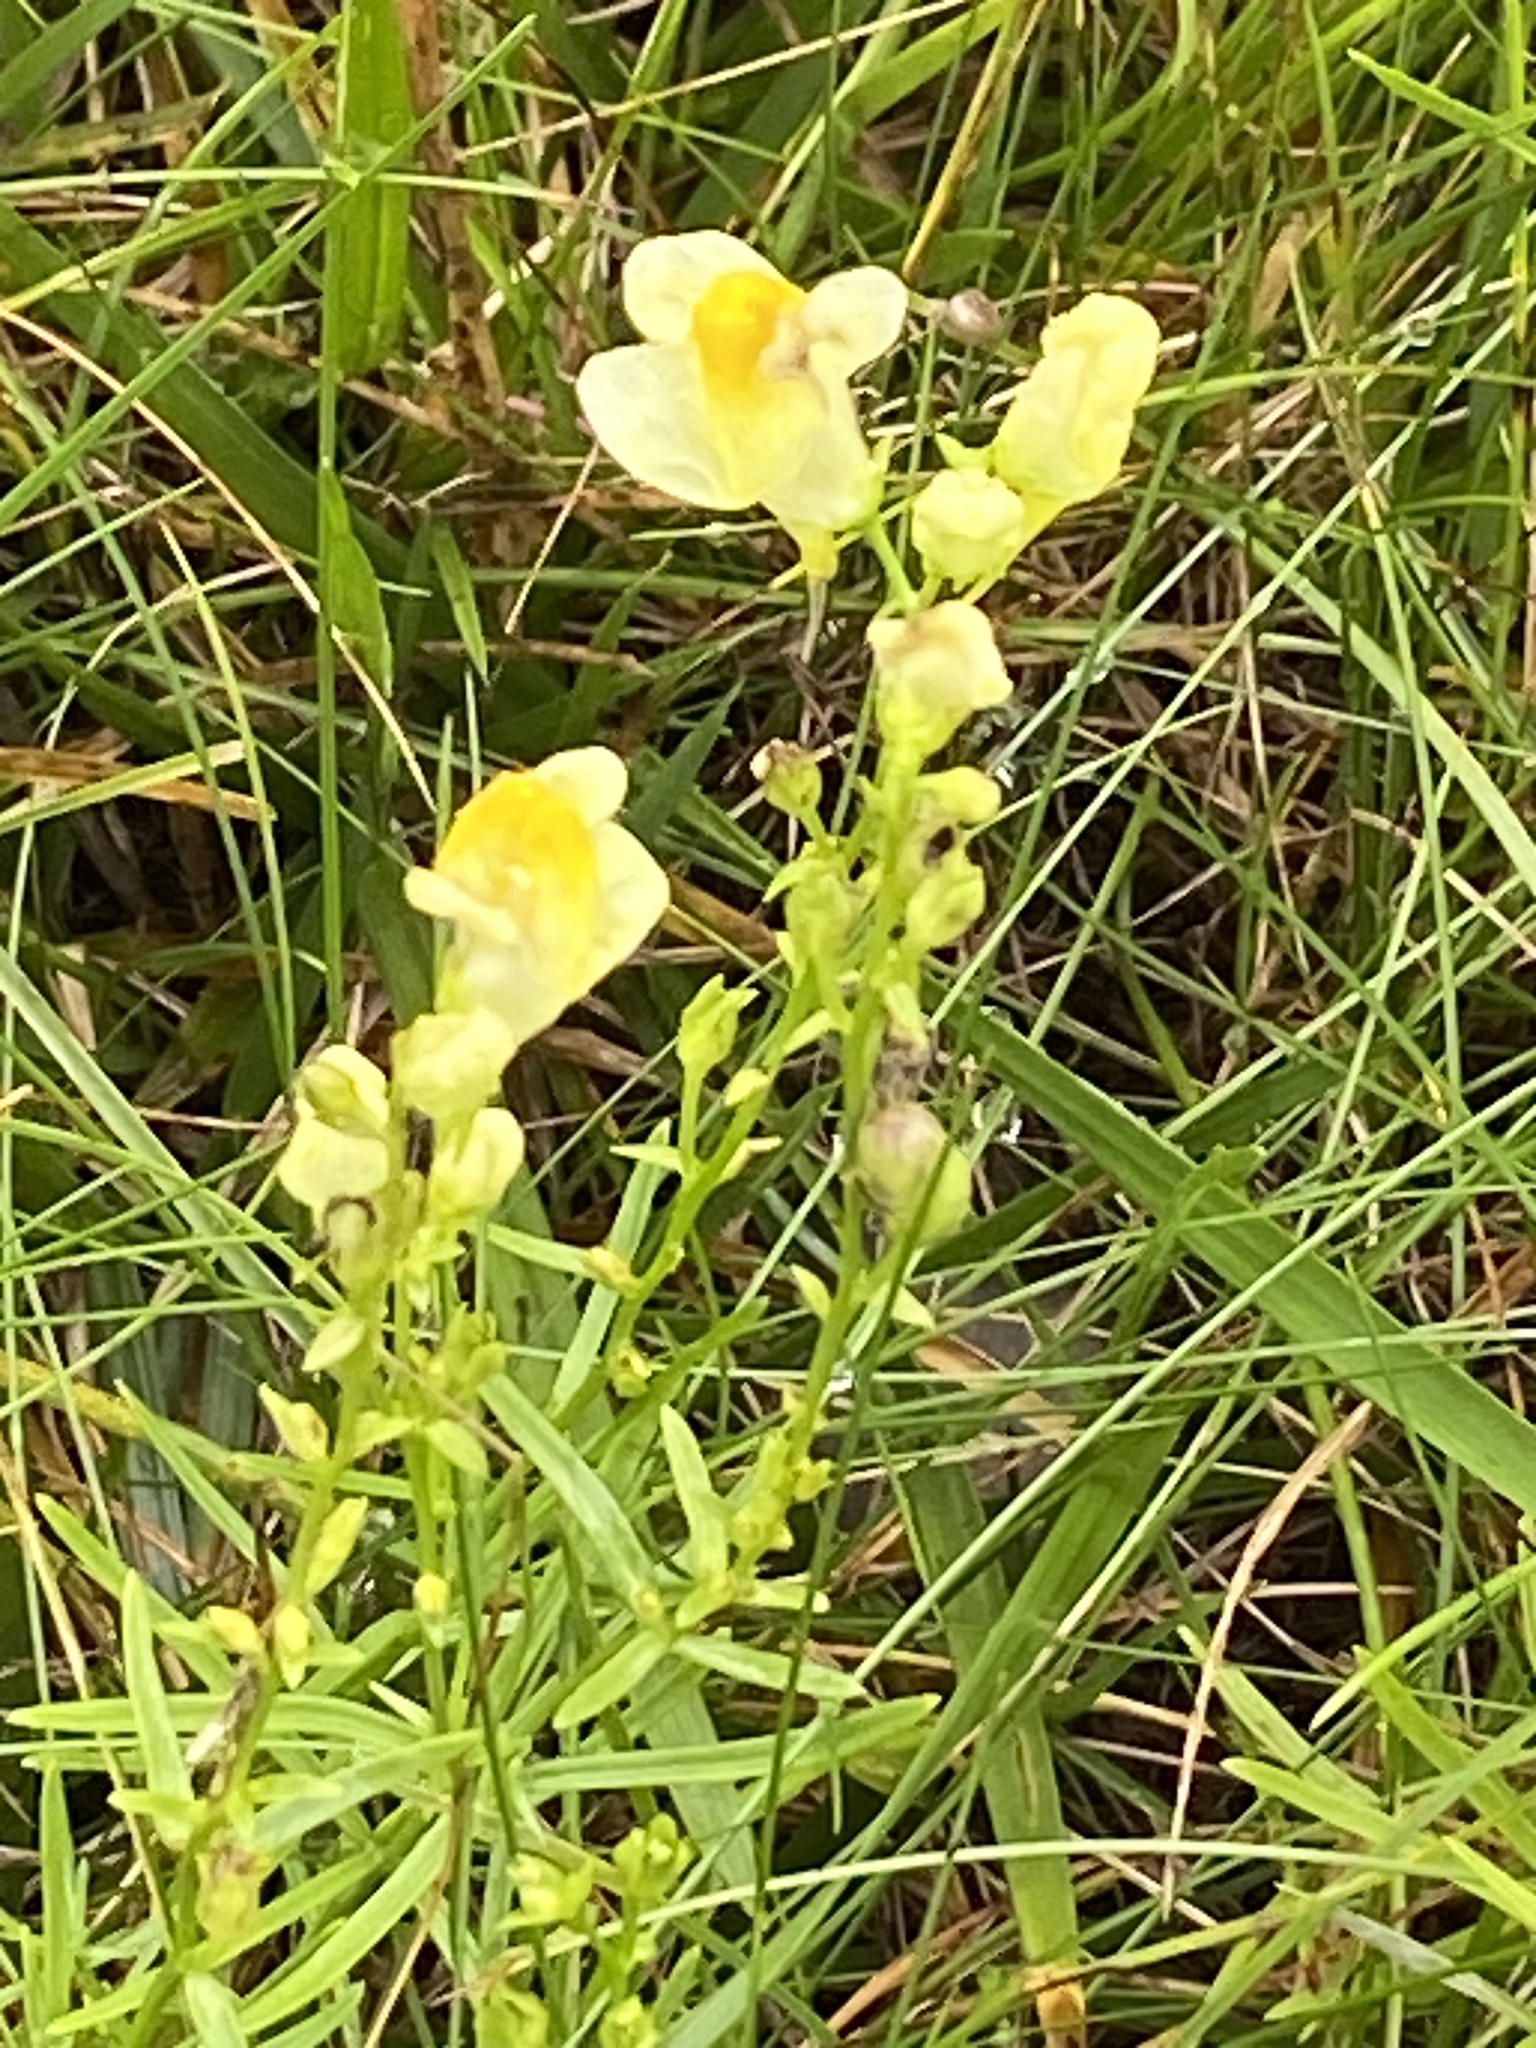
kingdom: Plantae
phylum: Tracheophyta
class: Magnoliopsida
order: Lamiales
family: Plantaginaceae
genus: Linaria
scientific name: Linaria vulgaris
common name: Butter and eggs
